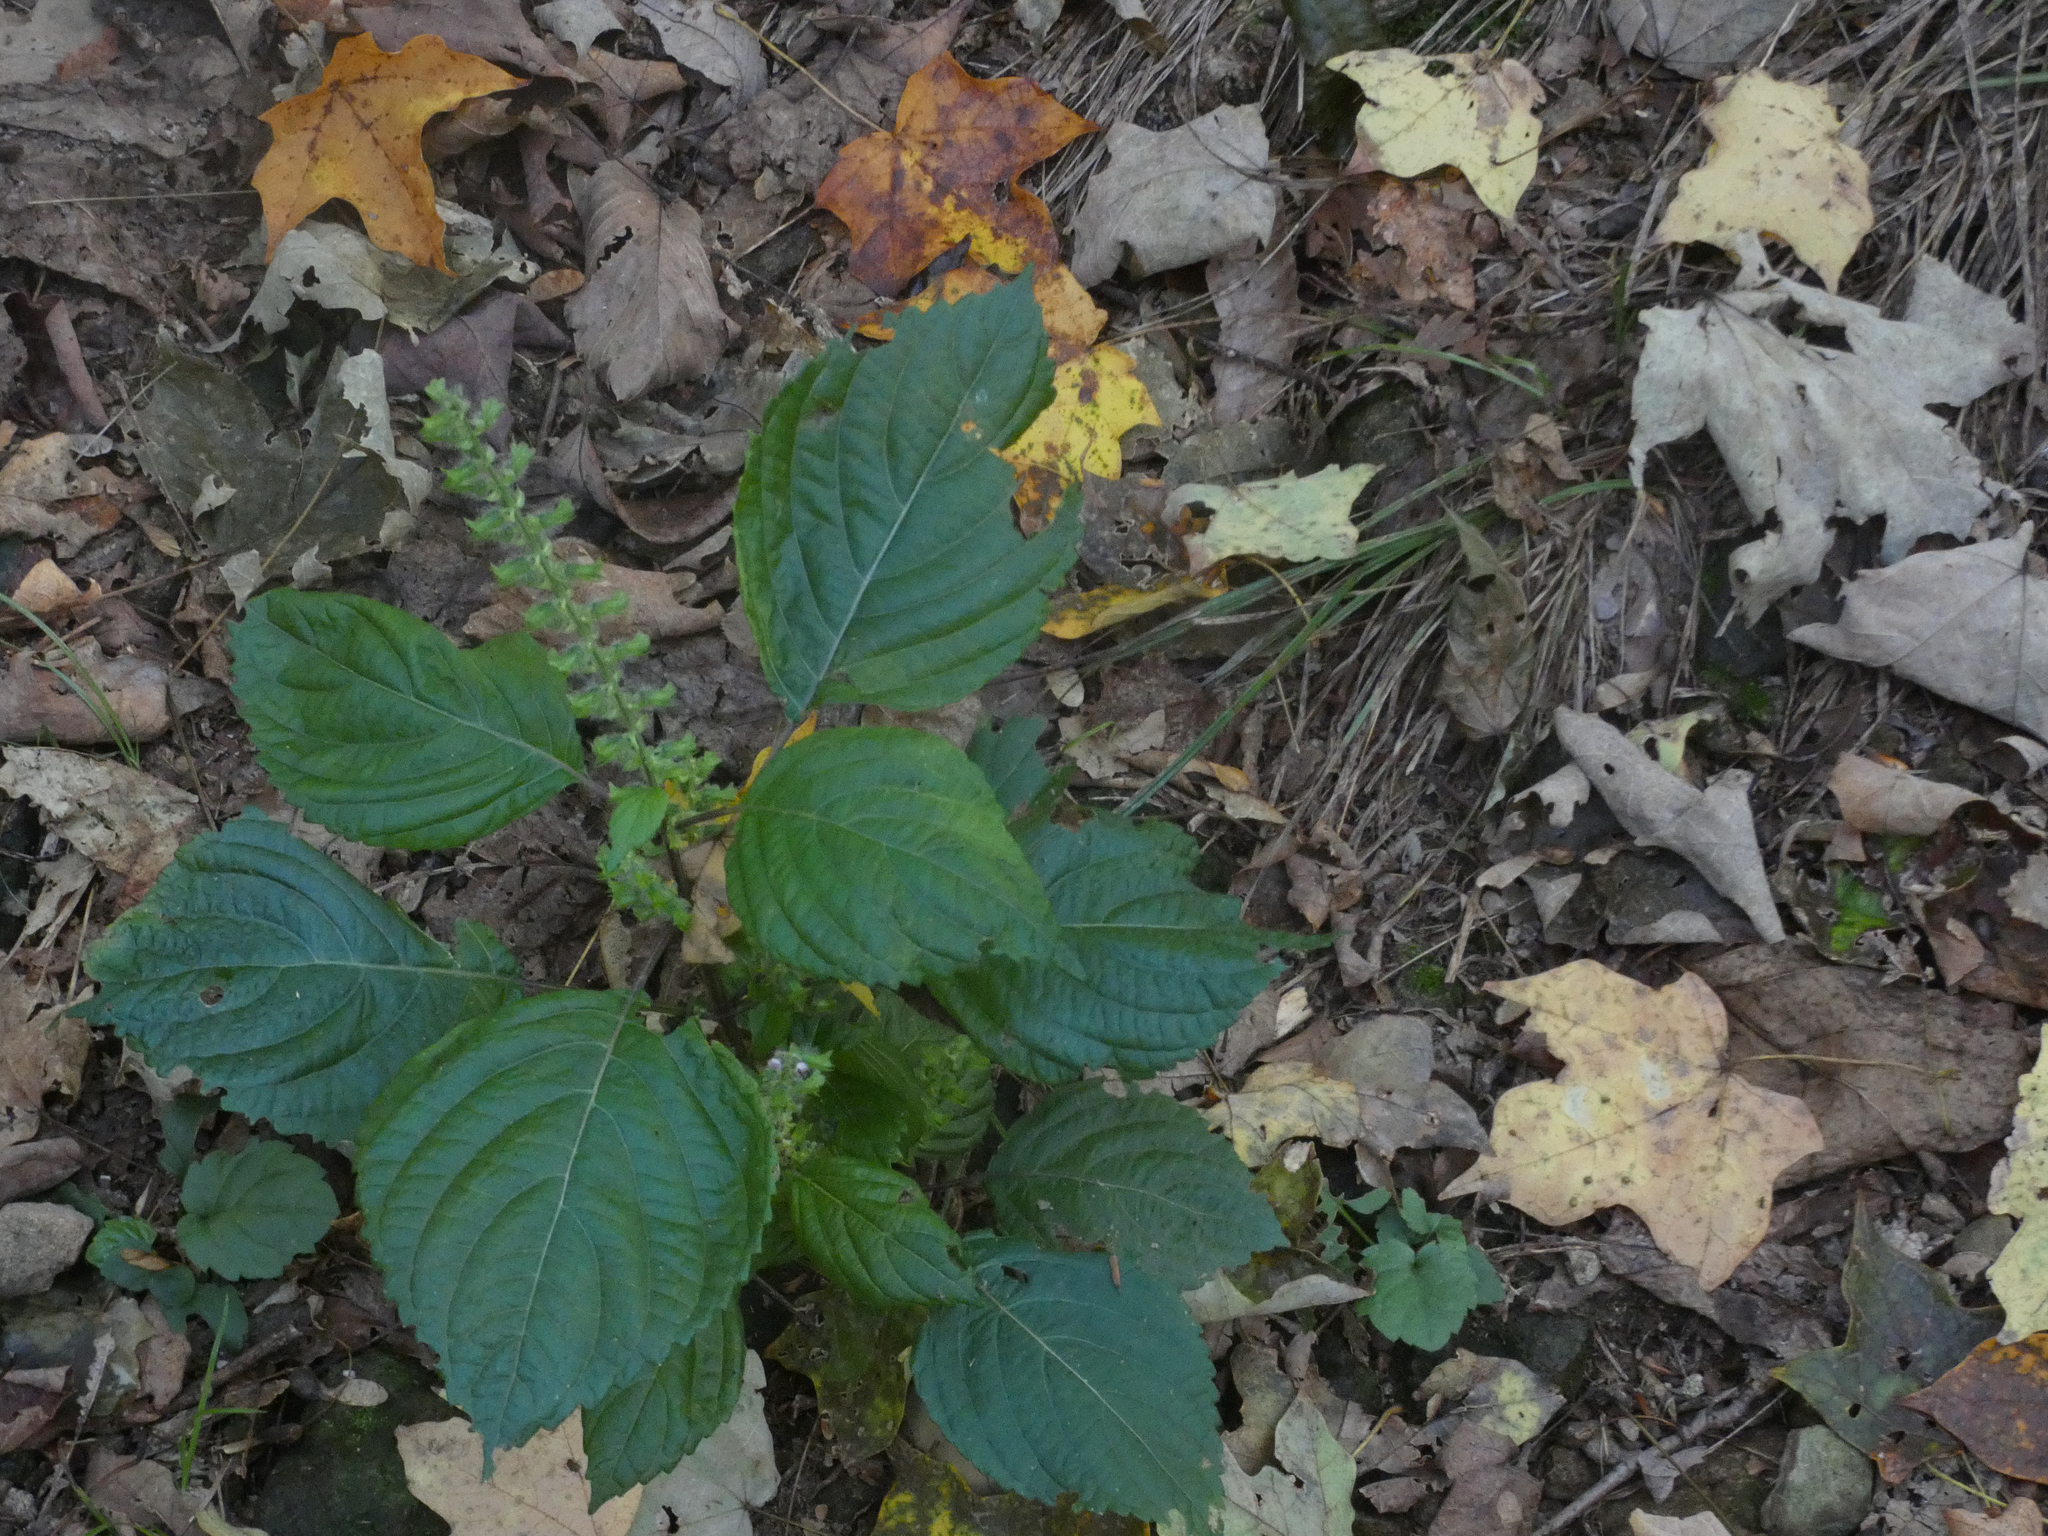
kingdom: Plantae
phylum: Tracheophyta
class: Magnoliopsida
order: Lamiales
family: Lamiaceae
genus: Perilla
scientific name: Perilla frutescens
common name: Perilla
